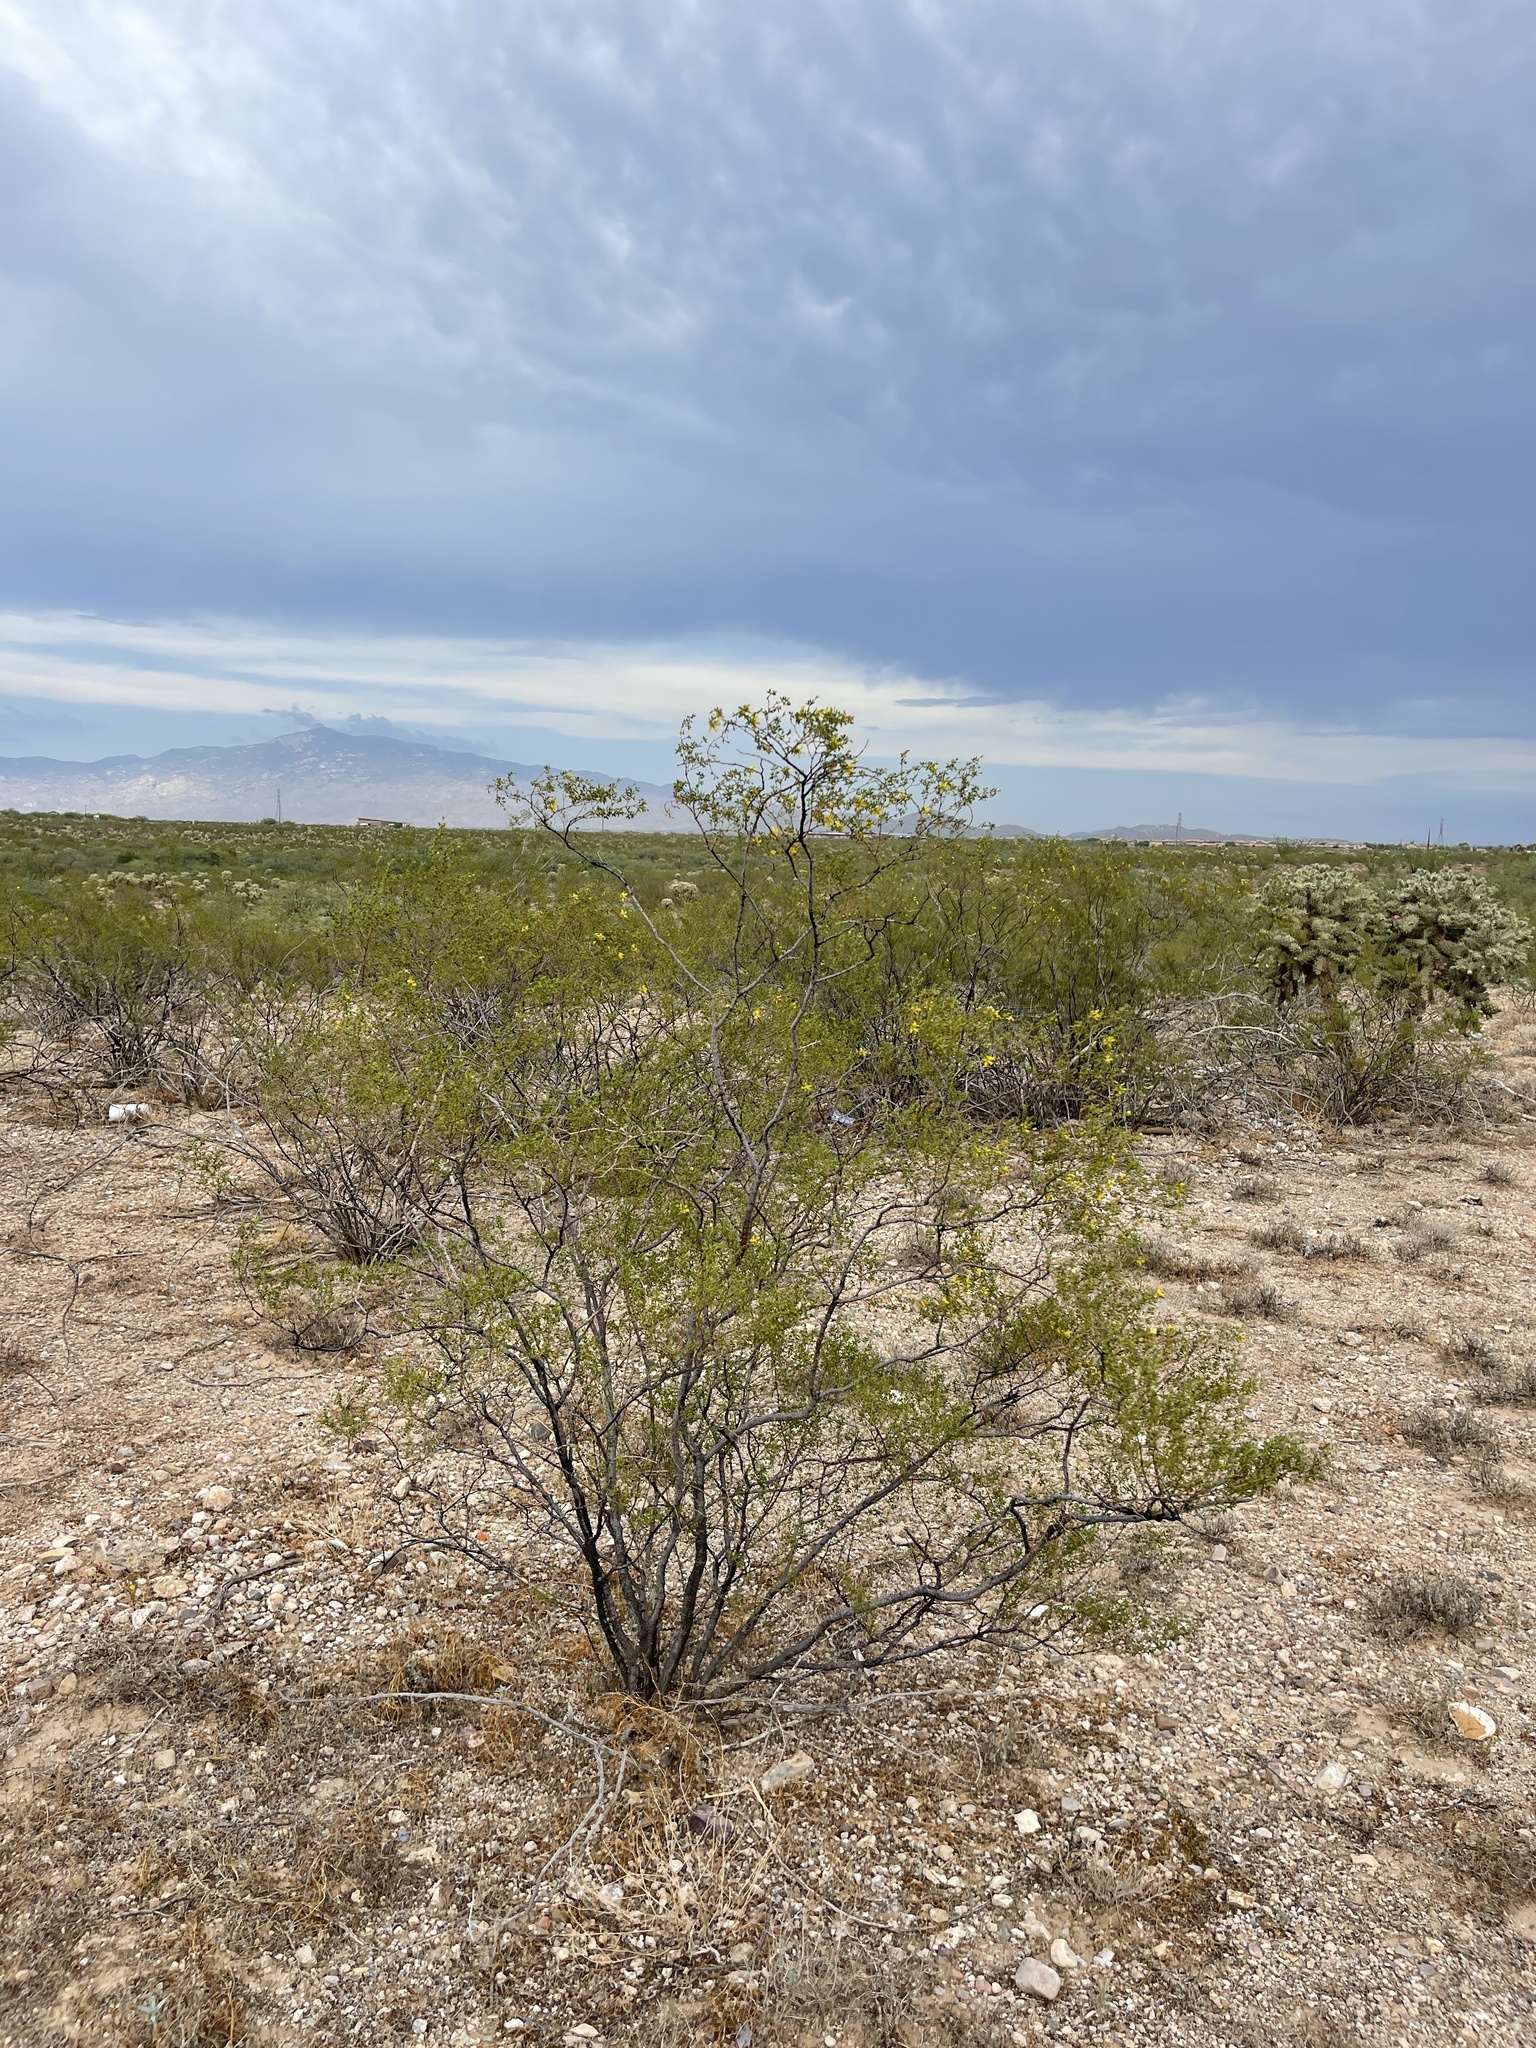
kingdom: Plantae
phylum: Tracheophyta
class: Magnoliopsida
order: Zygophyllales
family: Zygophyllaceae
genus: Larrea
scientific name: Larrea tridentata
